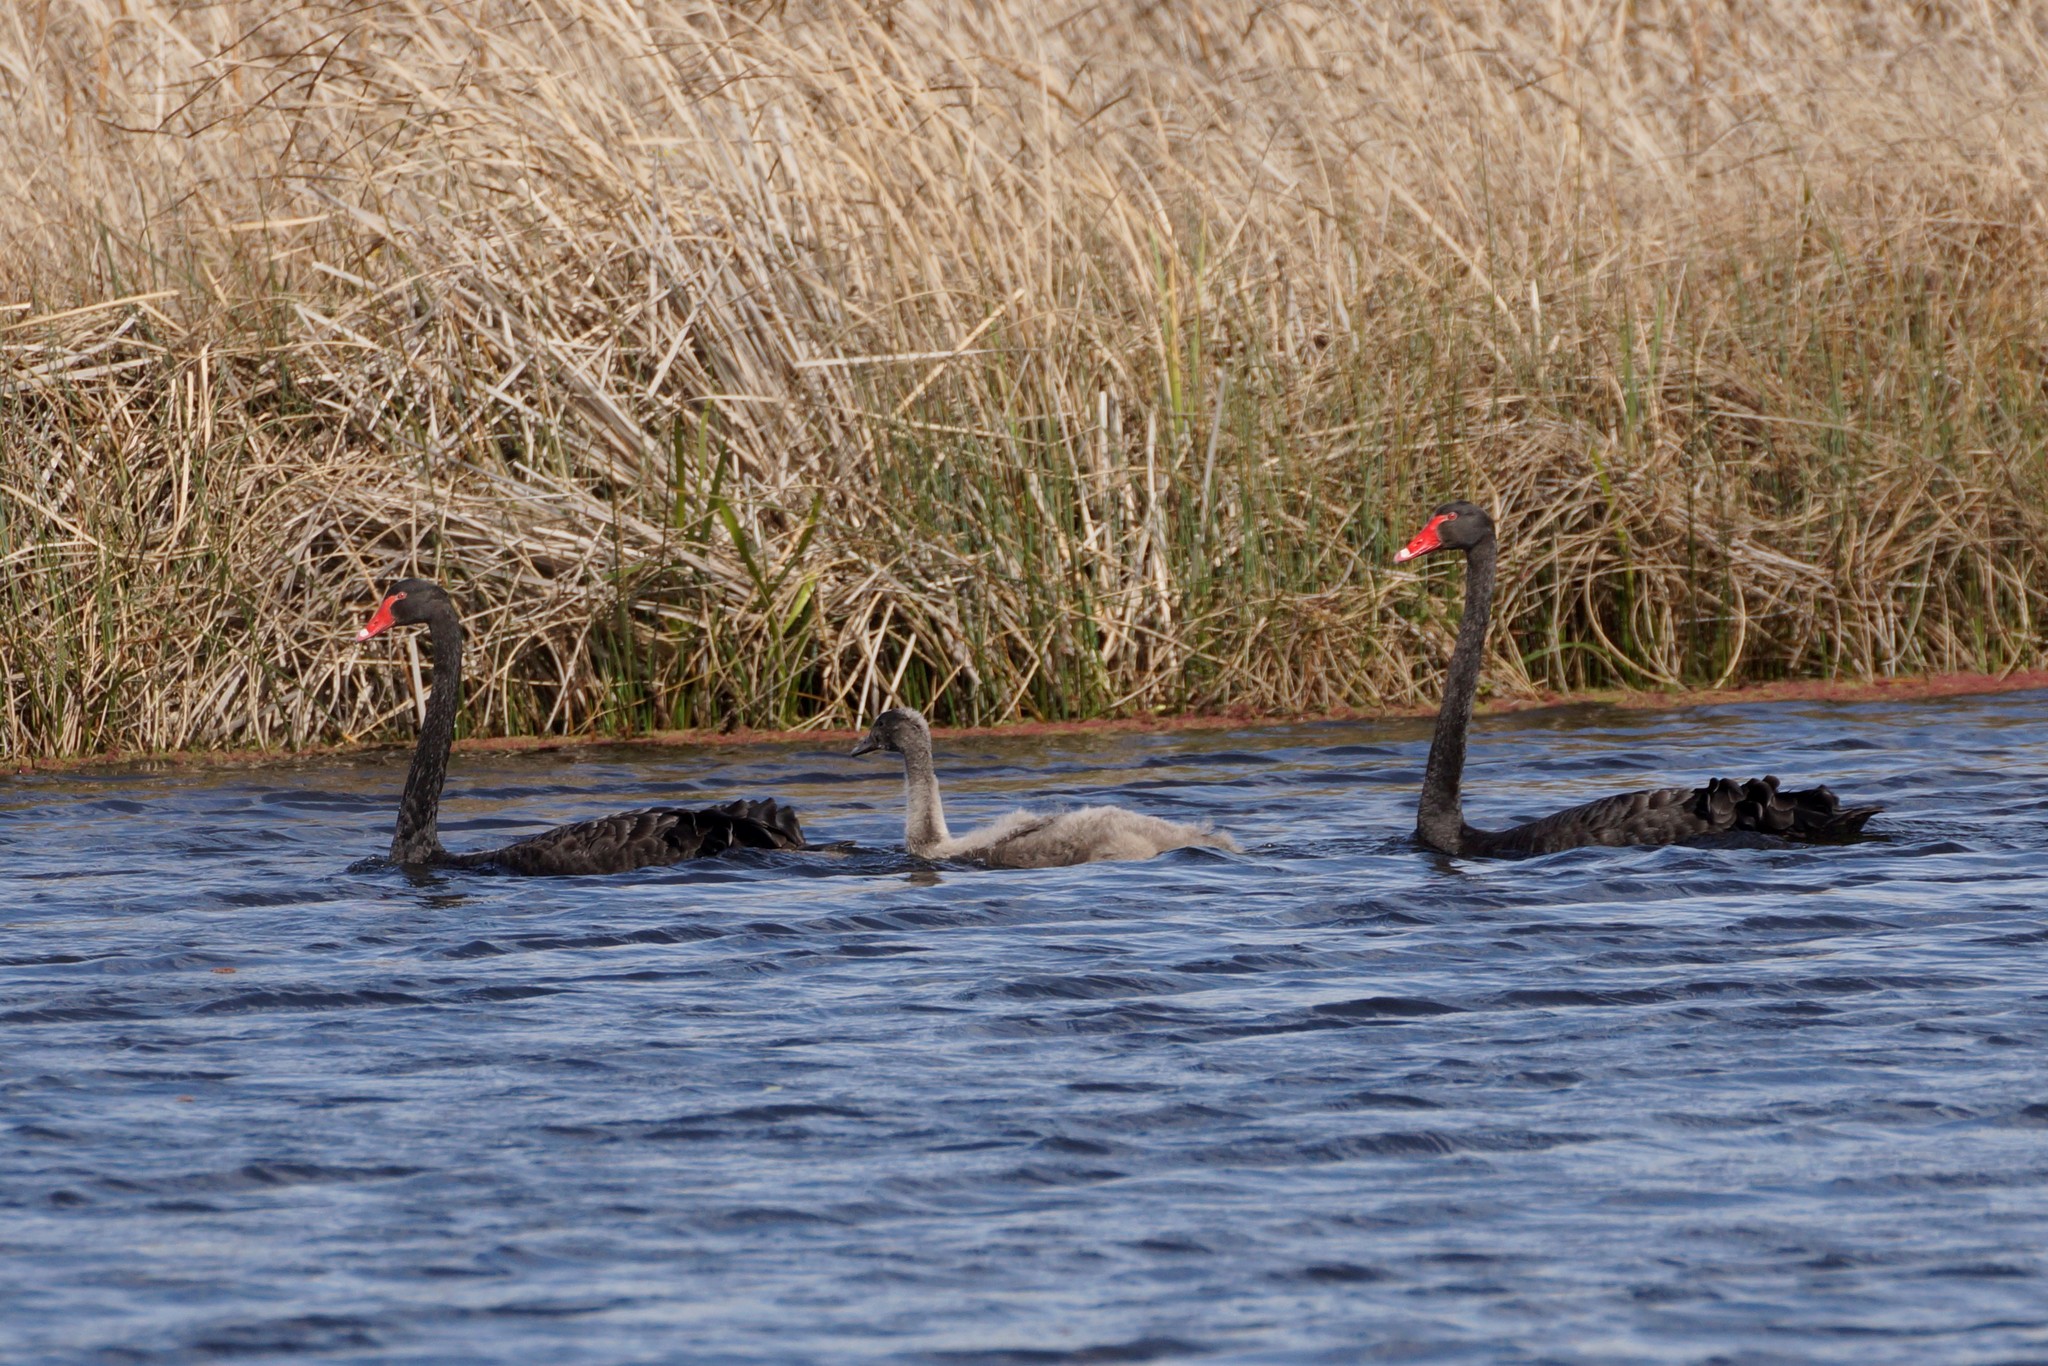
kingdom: Animalia
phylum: Chordata
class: Aves
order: Anseriformes
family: Anatidae
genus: Cygnus
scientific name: Cygnus atratus
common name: Black swan
